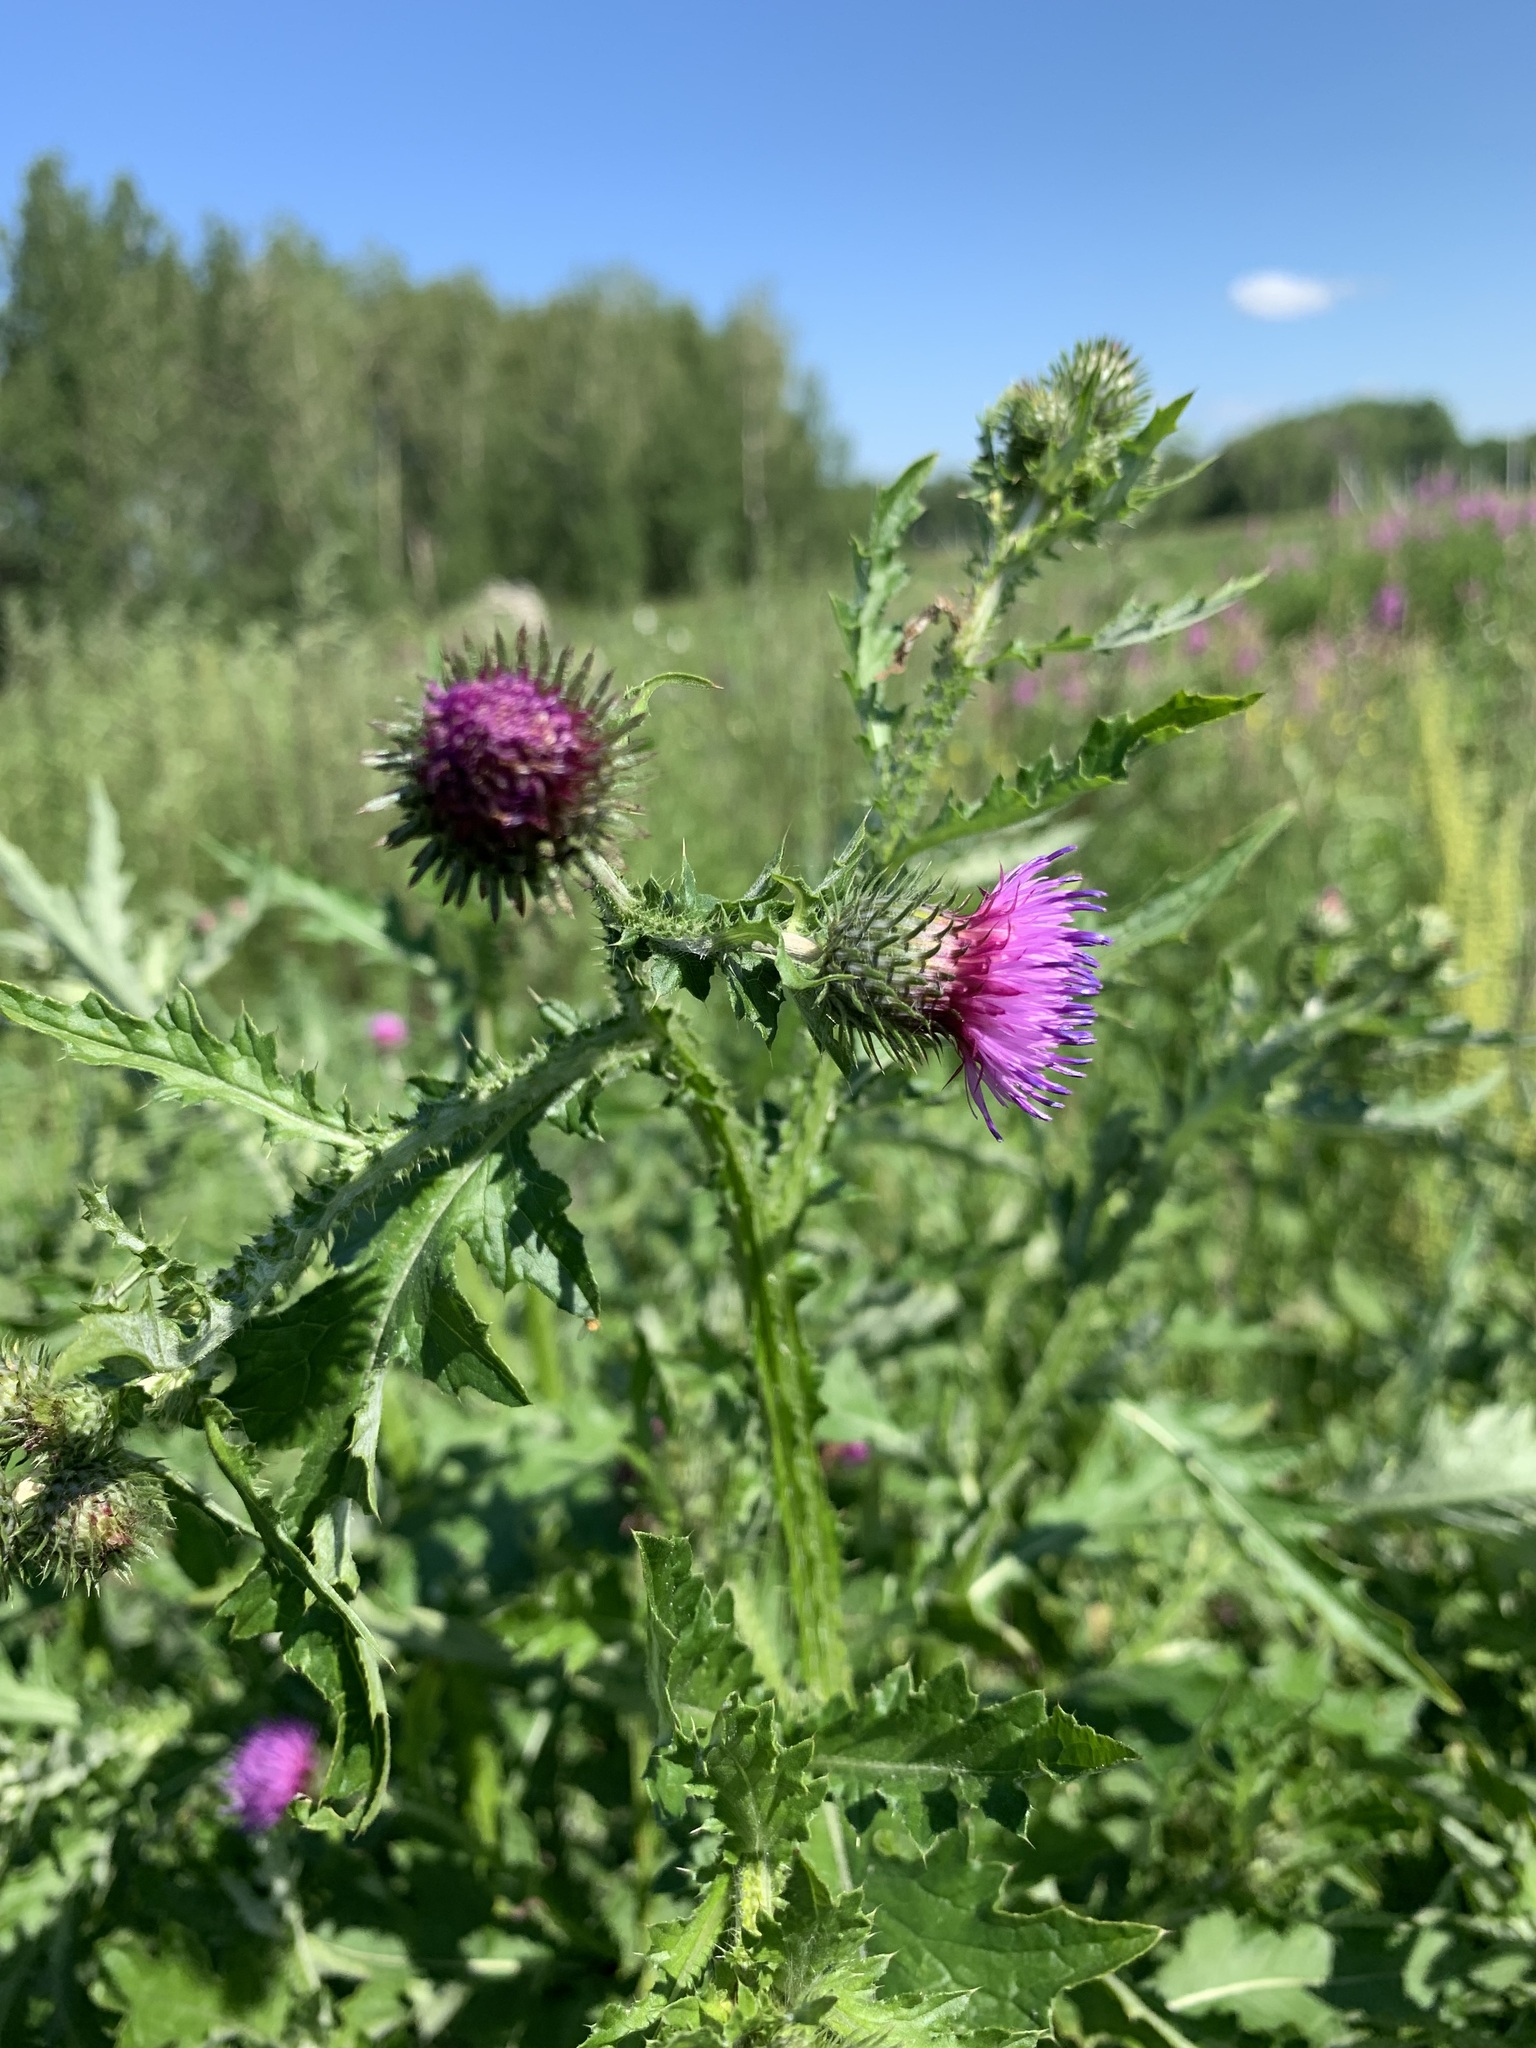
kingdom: Plantae
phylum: Tracheophyta
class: Magnoliopsida
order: Asterales
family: Asteraceae
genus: Carduus
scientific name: Carduus crispus
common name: Welted thistle
